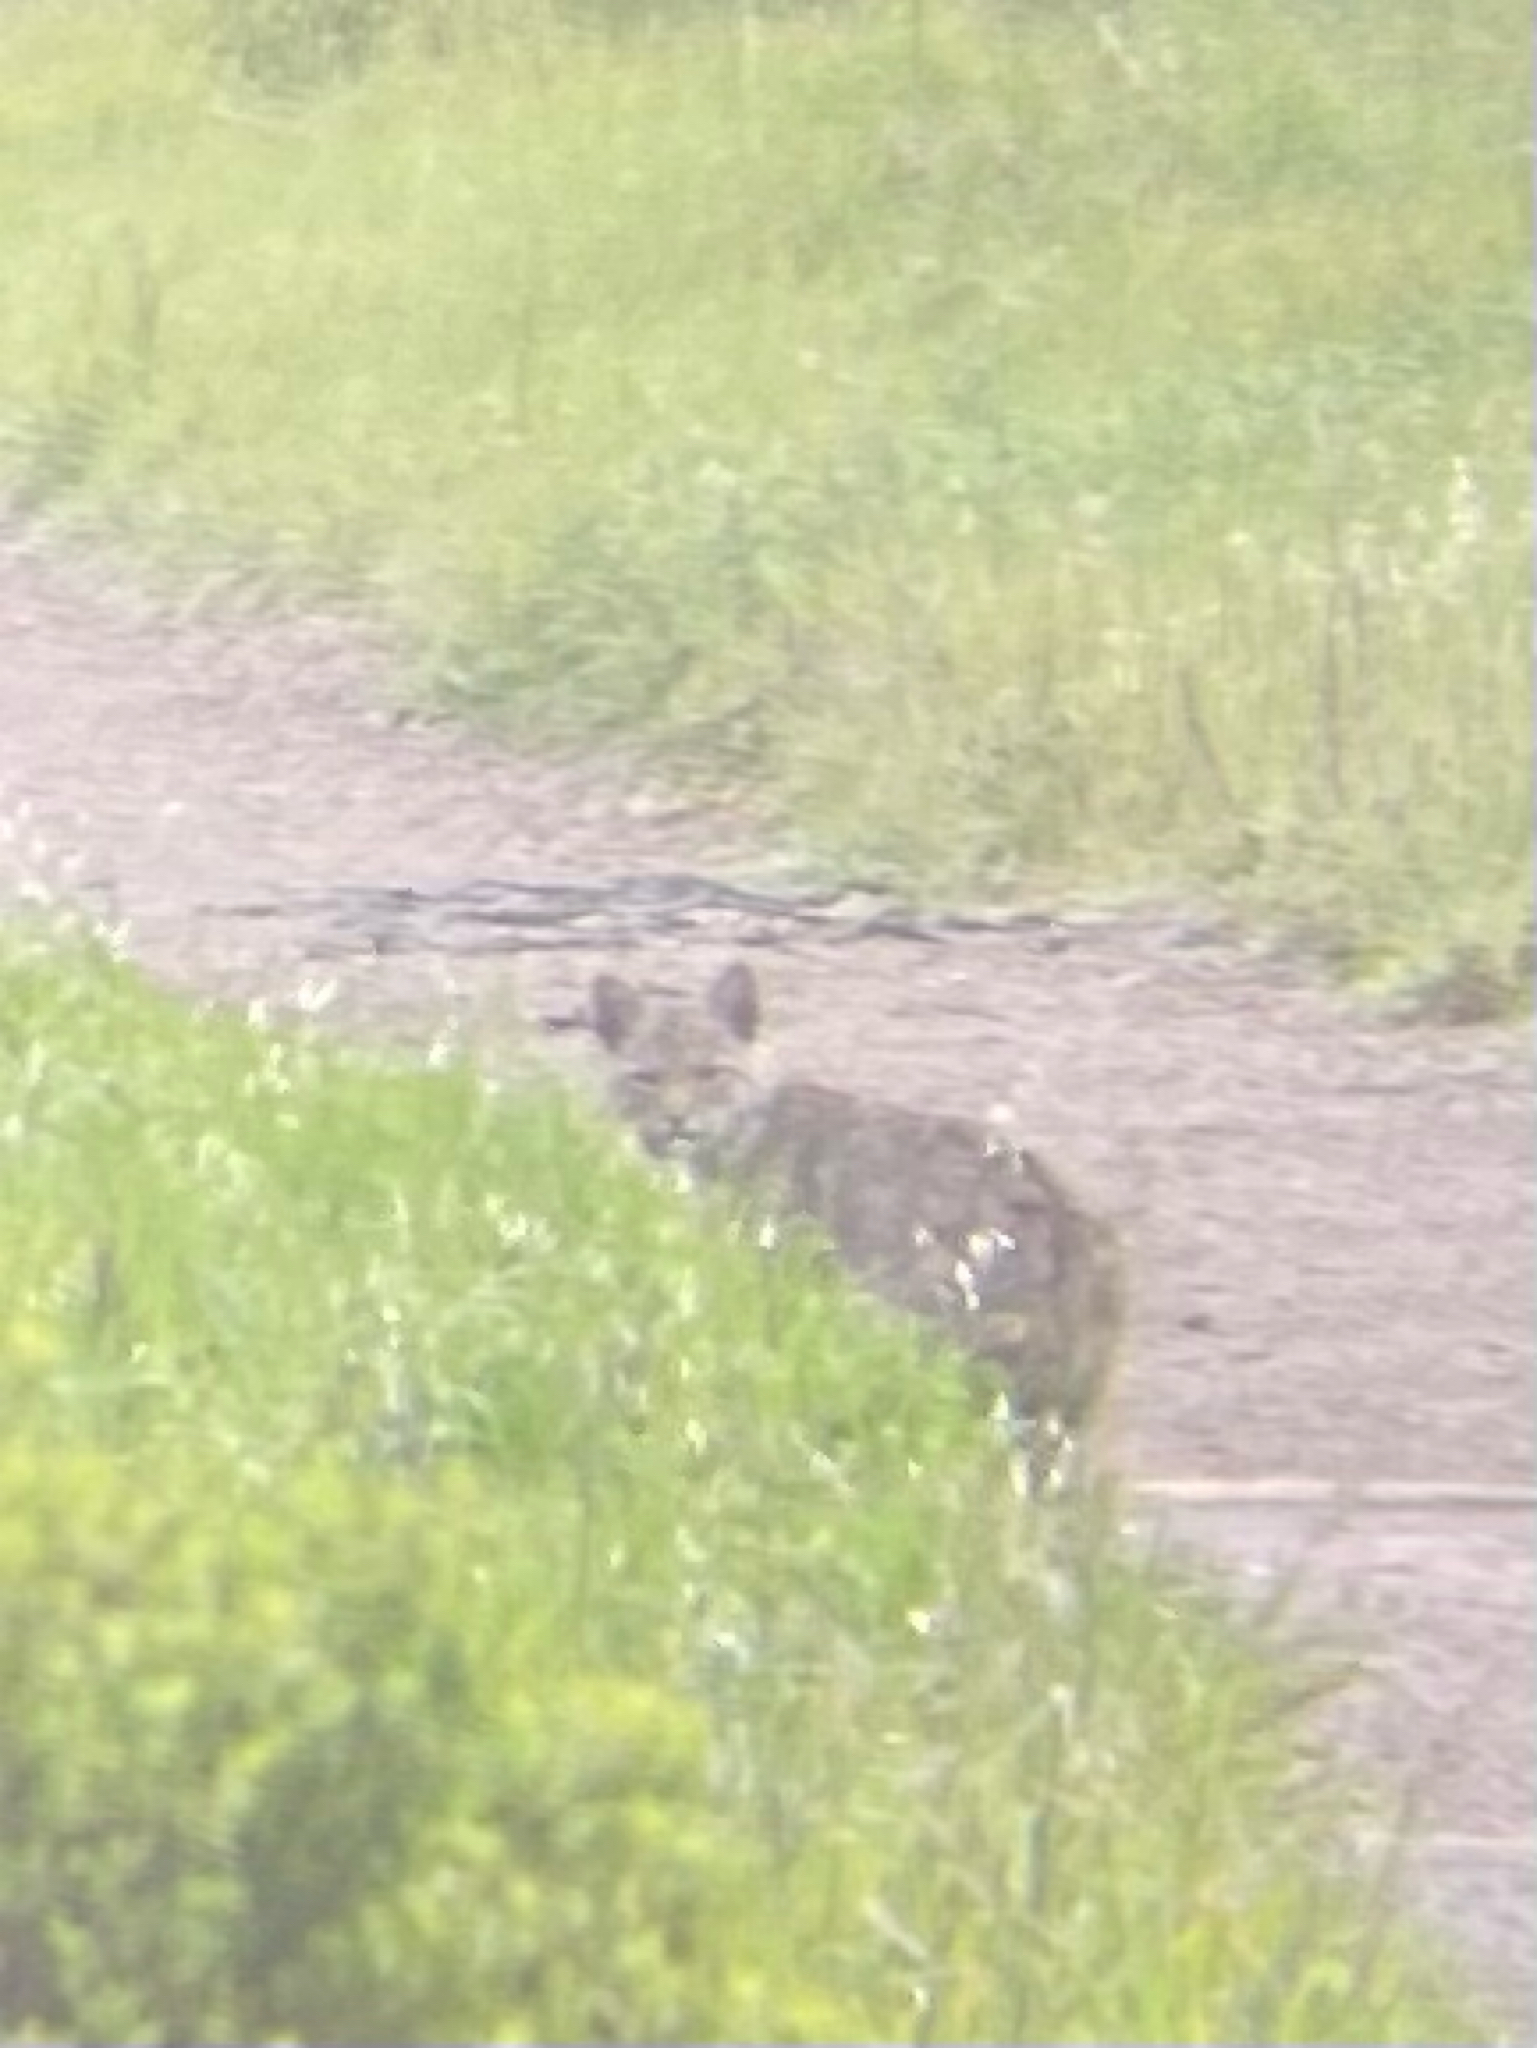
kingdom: Animalia
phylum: Chordata
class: Mammalia
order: Carnivora
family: Felidae
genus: Lynx
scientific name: Lynx rufus
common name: Bobcat
